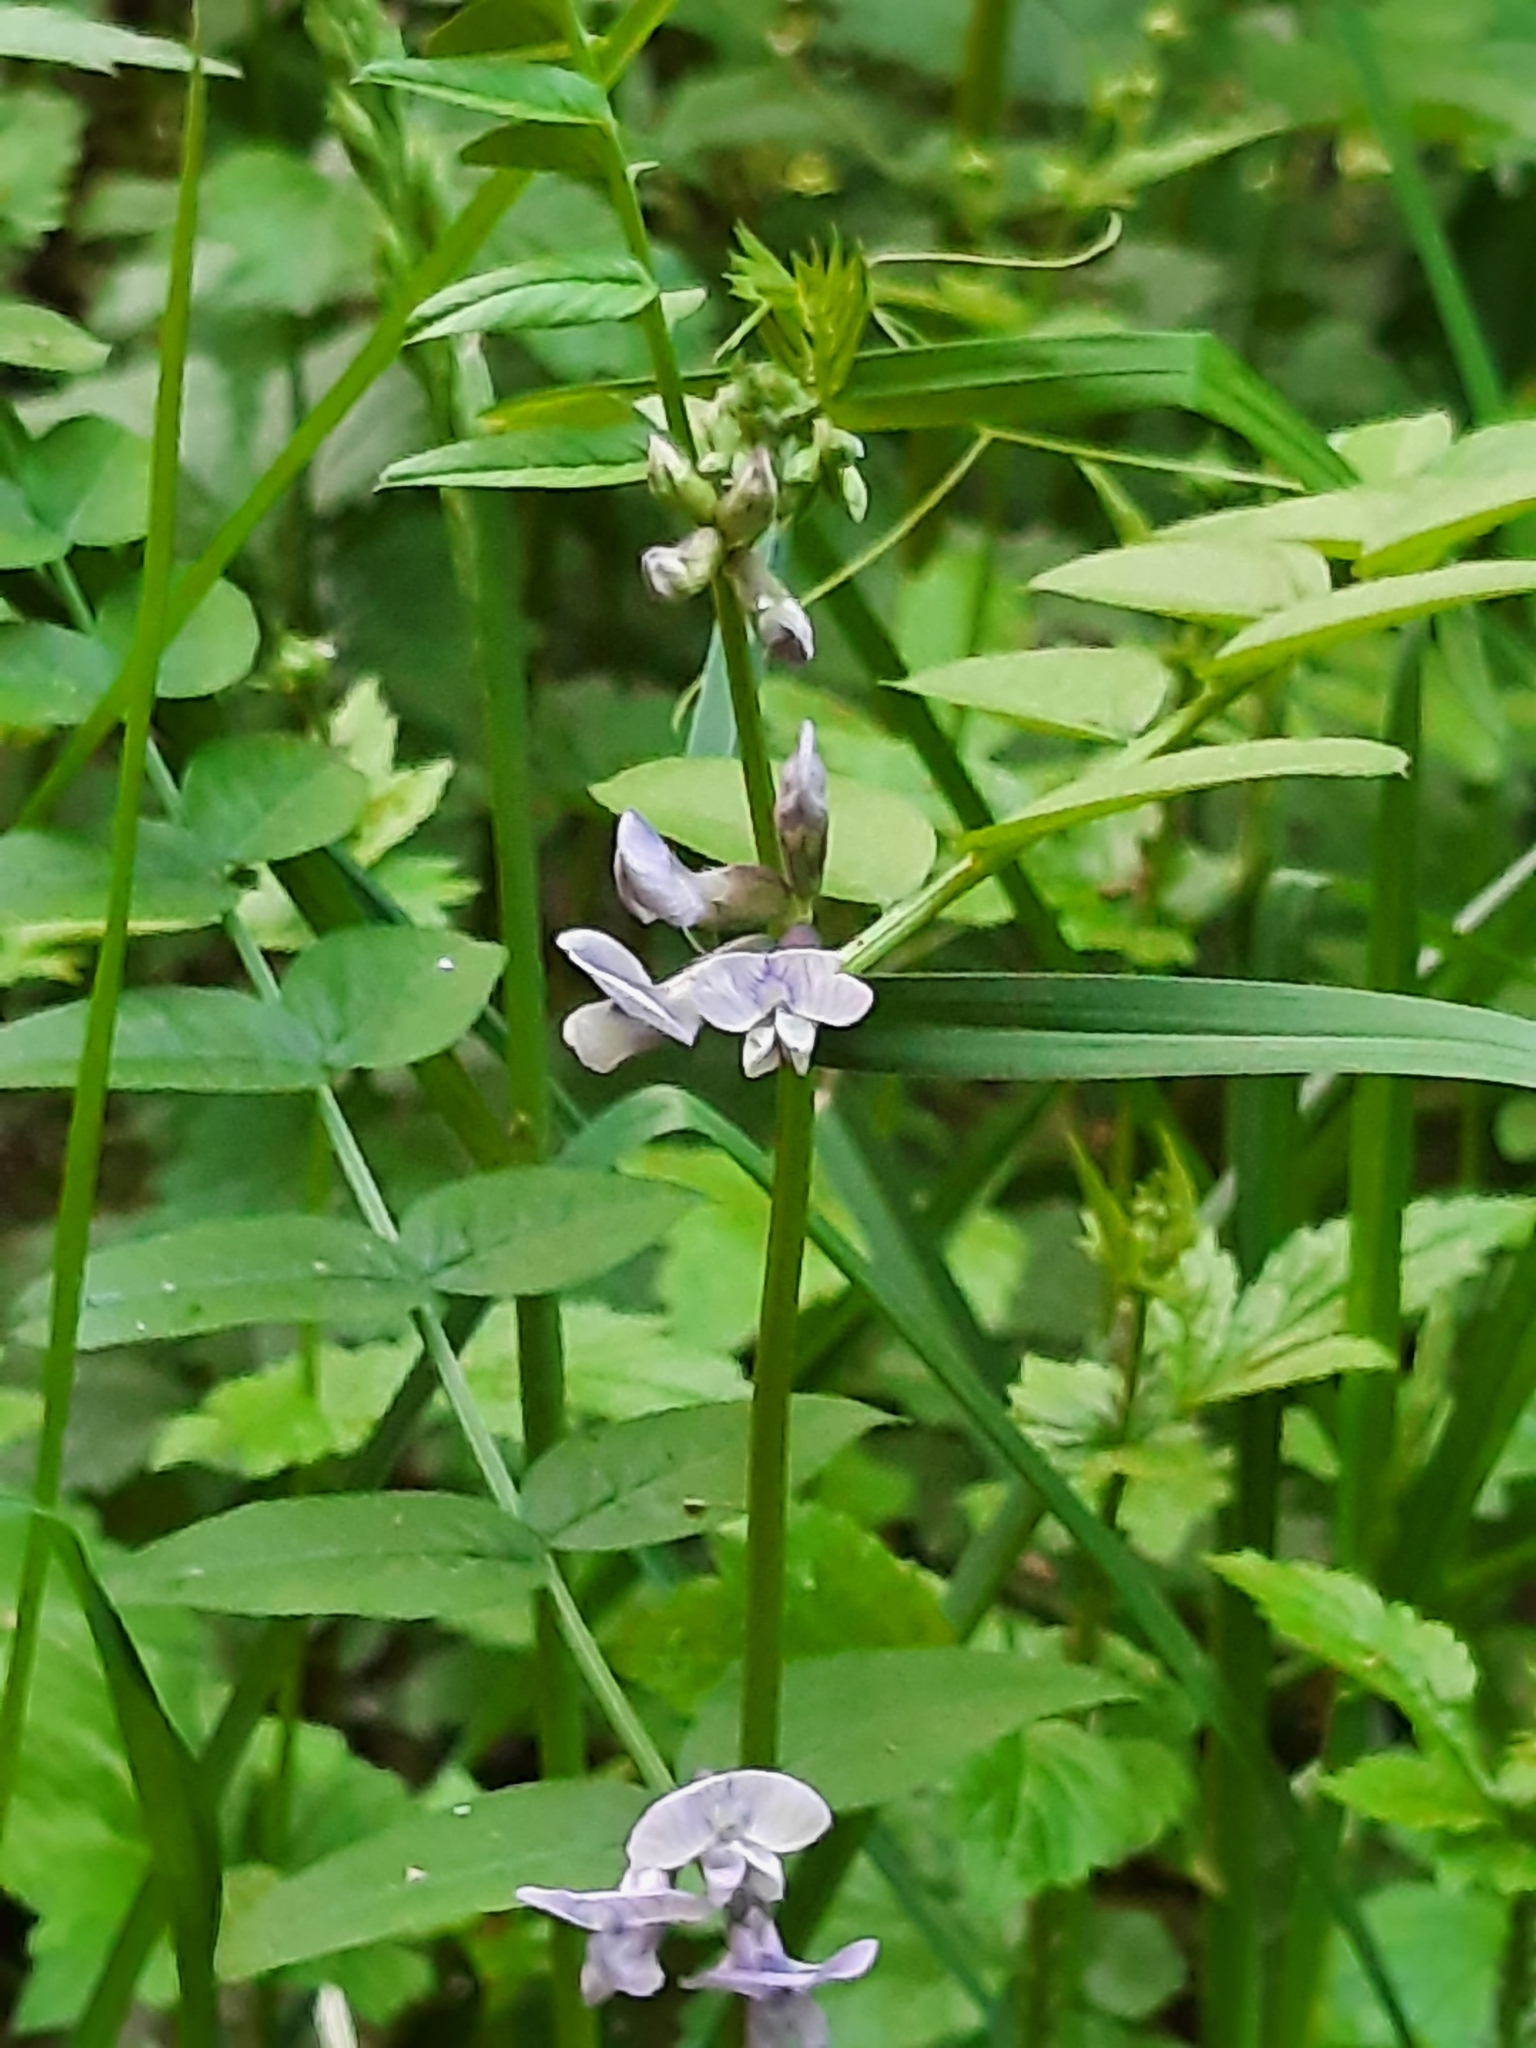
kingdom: Plantae
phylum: Tracheophyta
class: Magnoliopsida
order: Fabales
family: Fabaceae
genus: Vicia
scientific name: Vicia sepium
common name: Bush vetch
